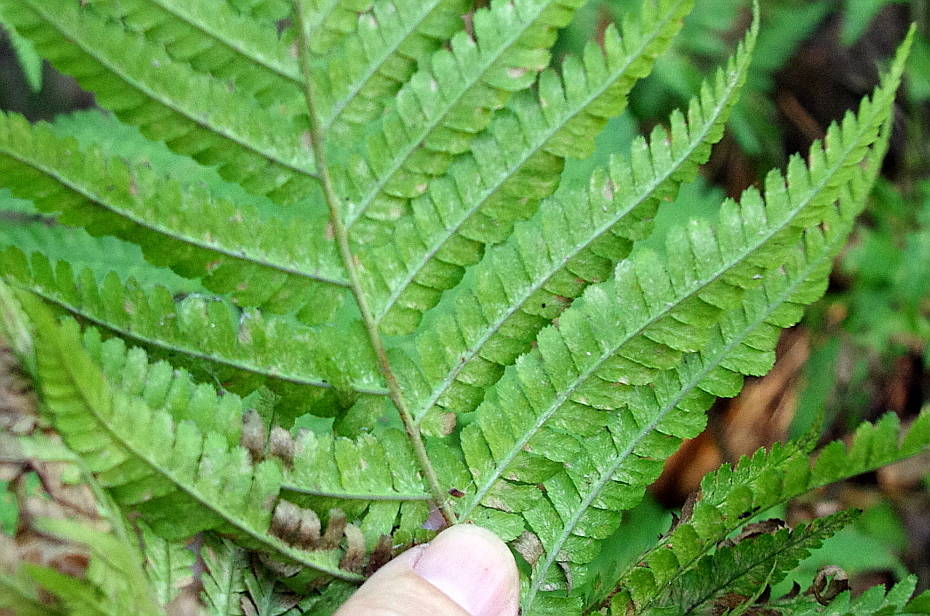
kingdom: Plantae
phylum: Tracheophyta
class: Polypodiopsida
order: Polypodiales
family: Dryopteridaceae
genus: Dryopteris
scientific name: Dryopteris filix-mas
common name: Male fern
